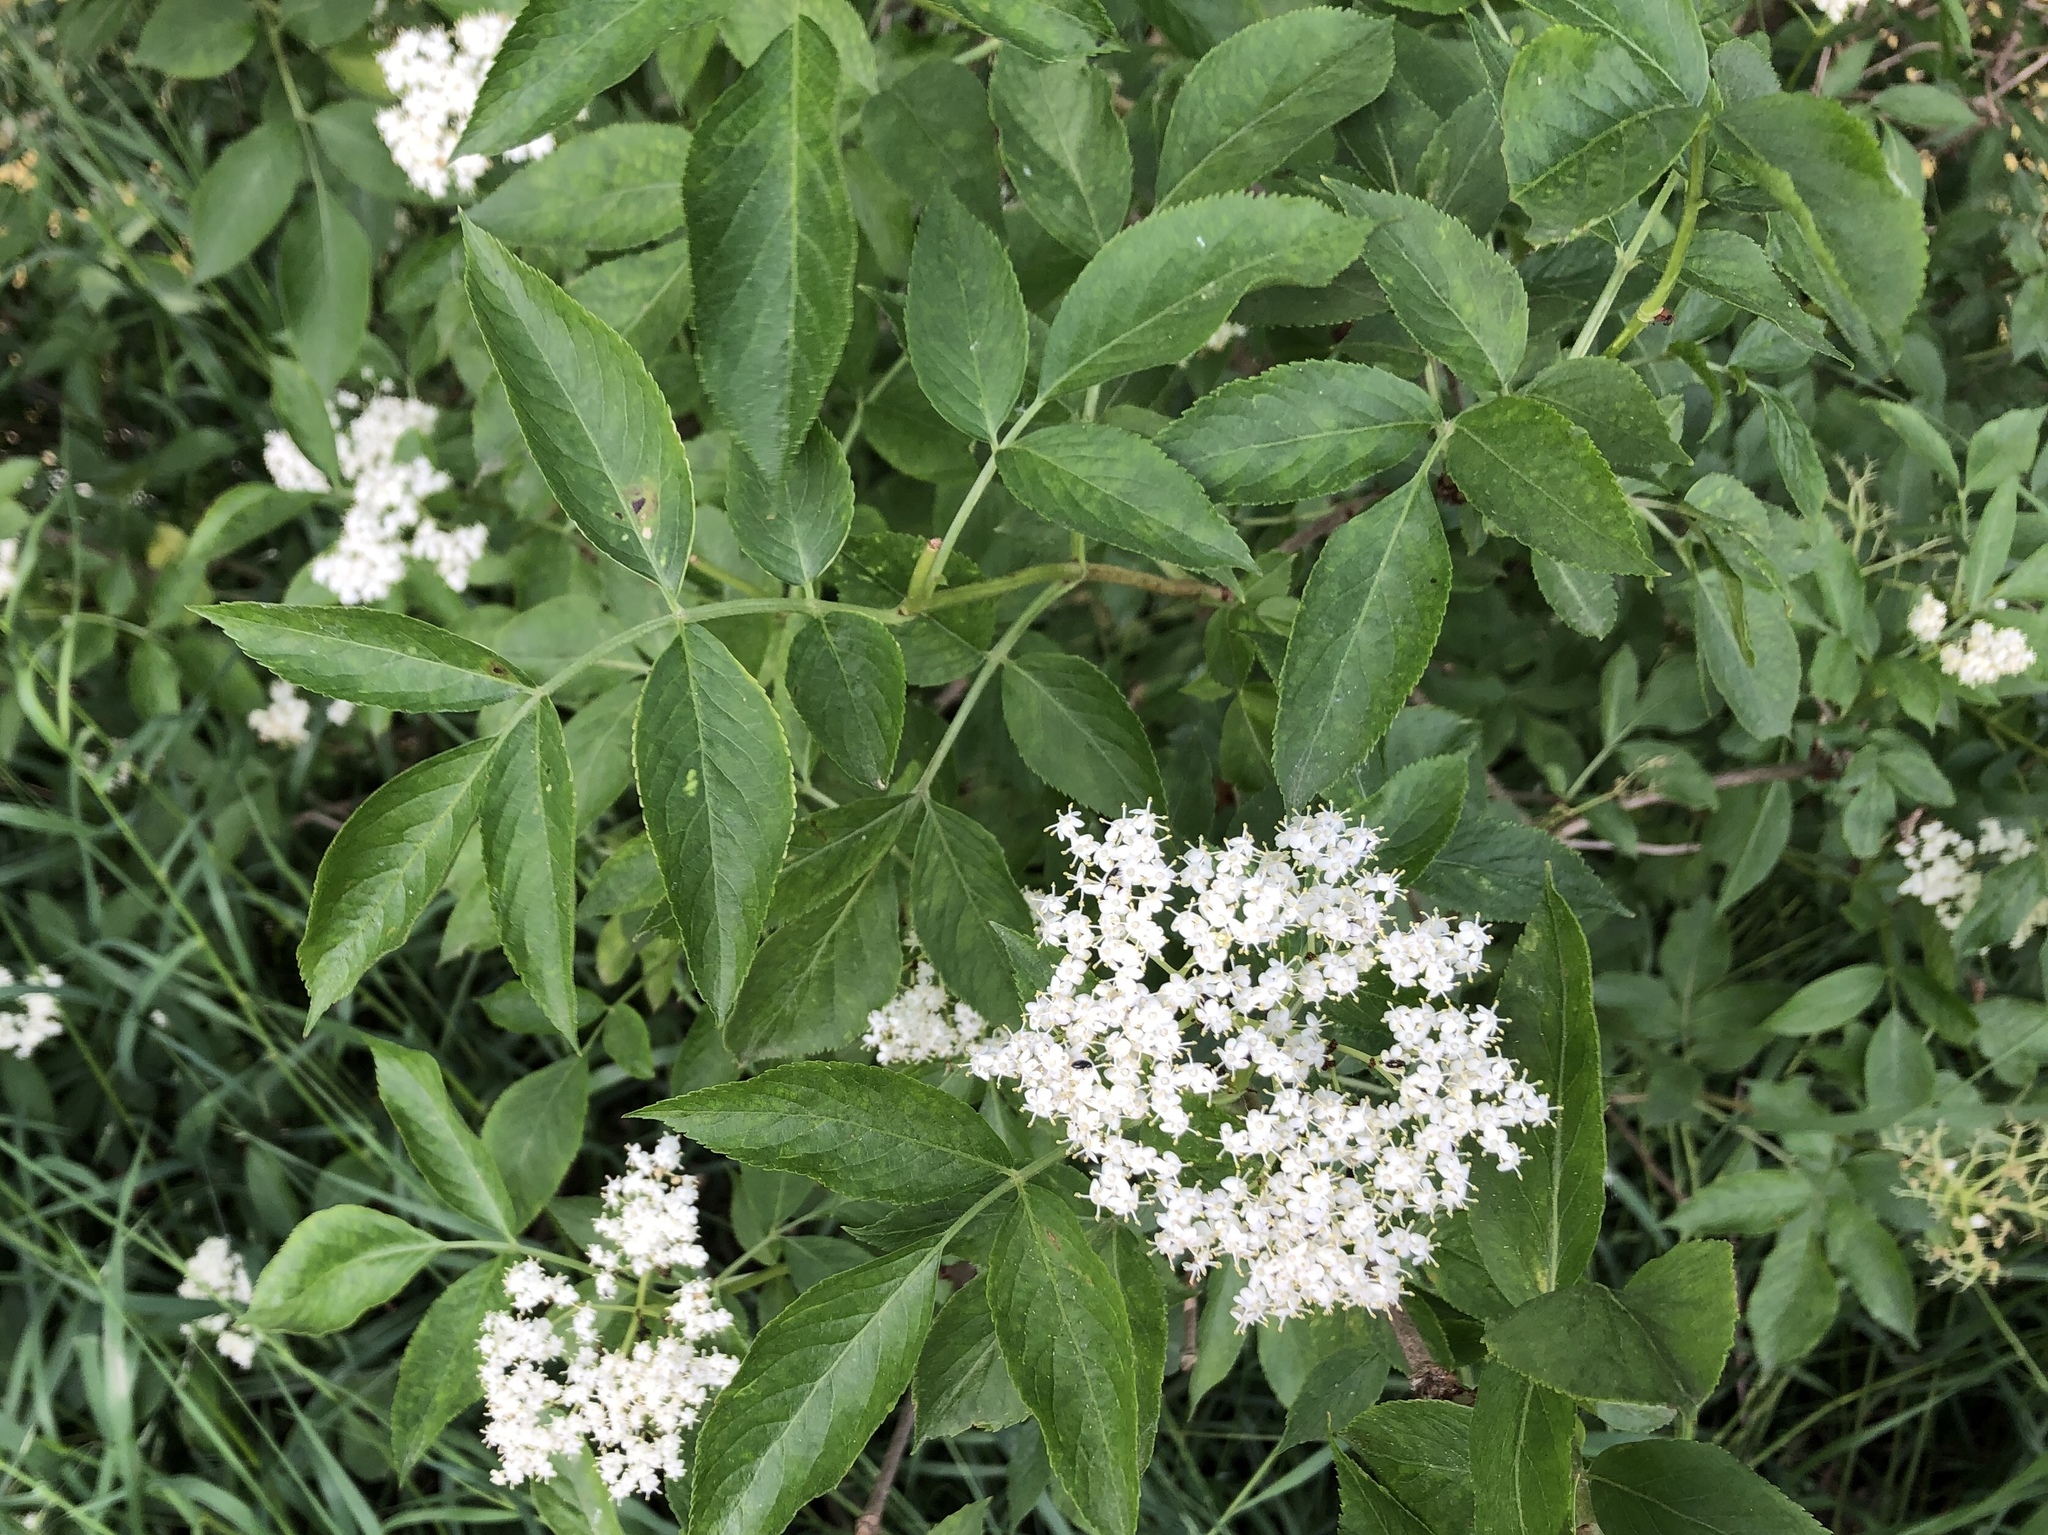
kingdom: Plantae
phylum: Tracheophyta
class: Magnoliopsida
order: Dipsacales
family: Viburnaceae
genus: Sambucus
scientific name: Sambucus nigra
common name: Elder
